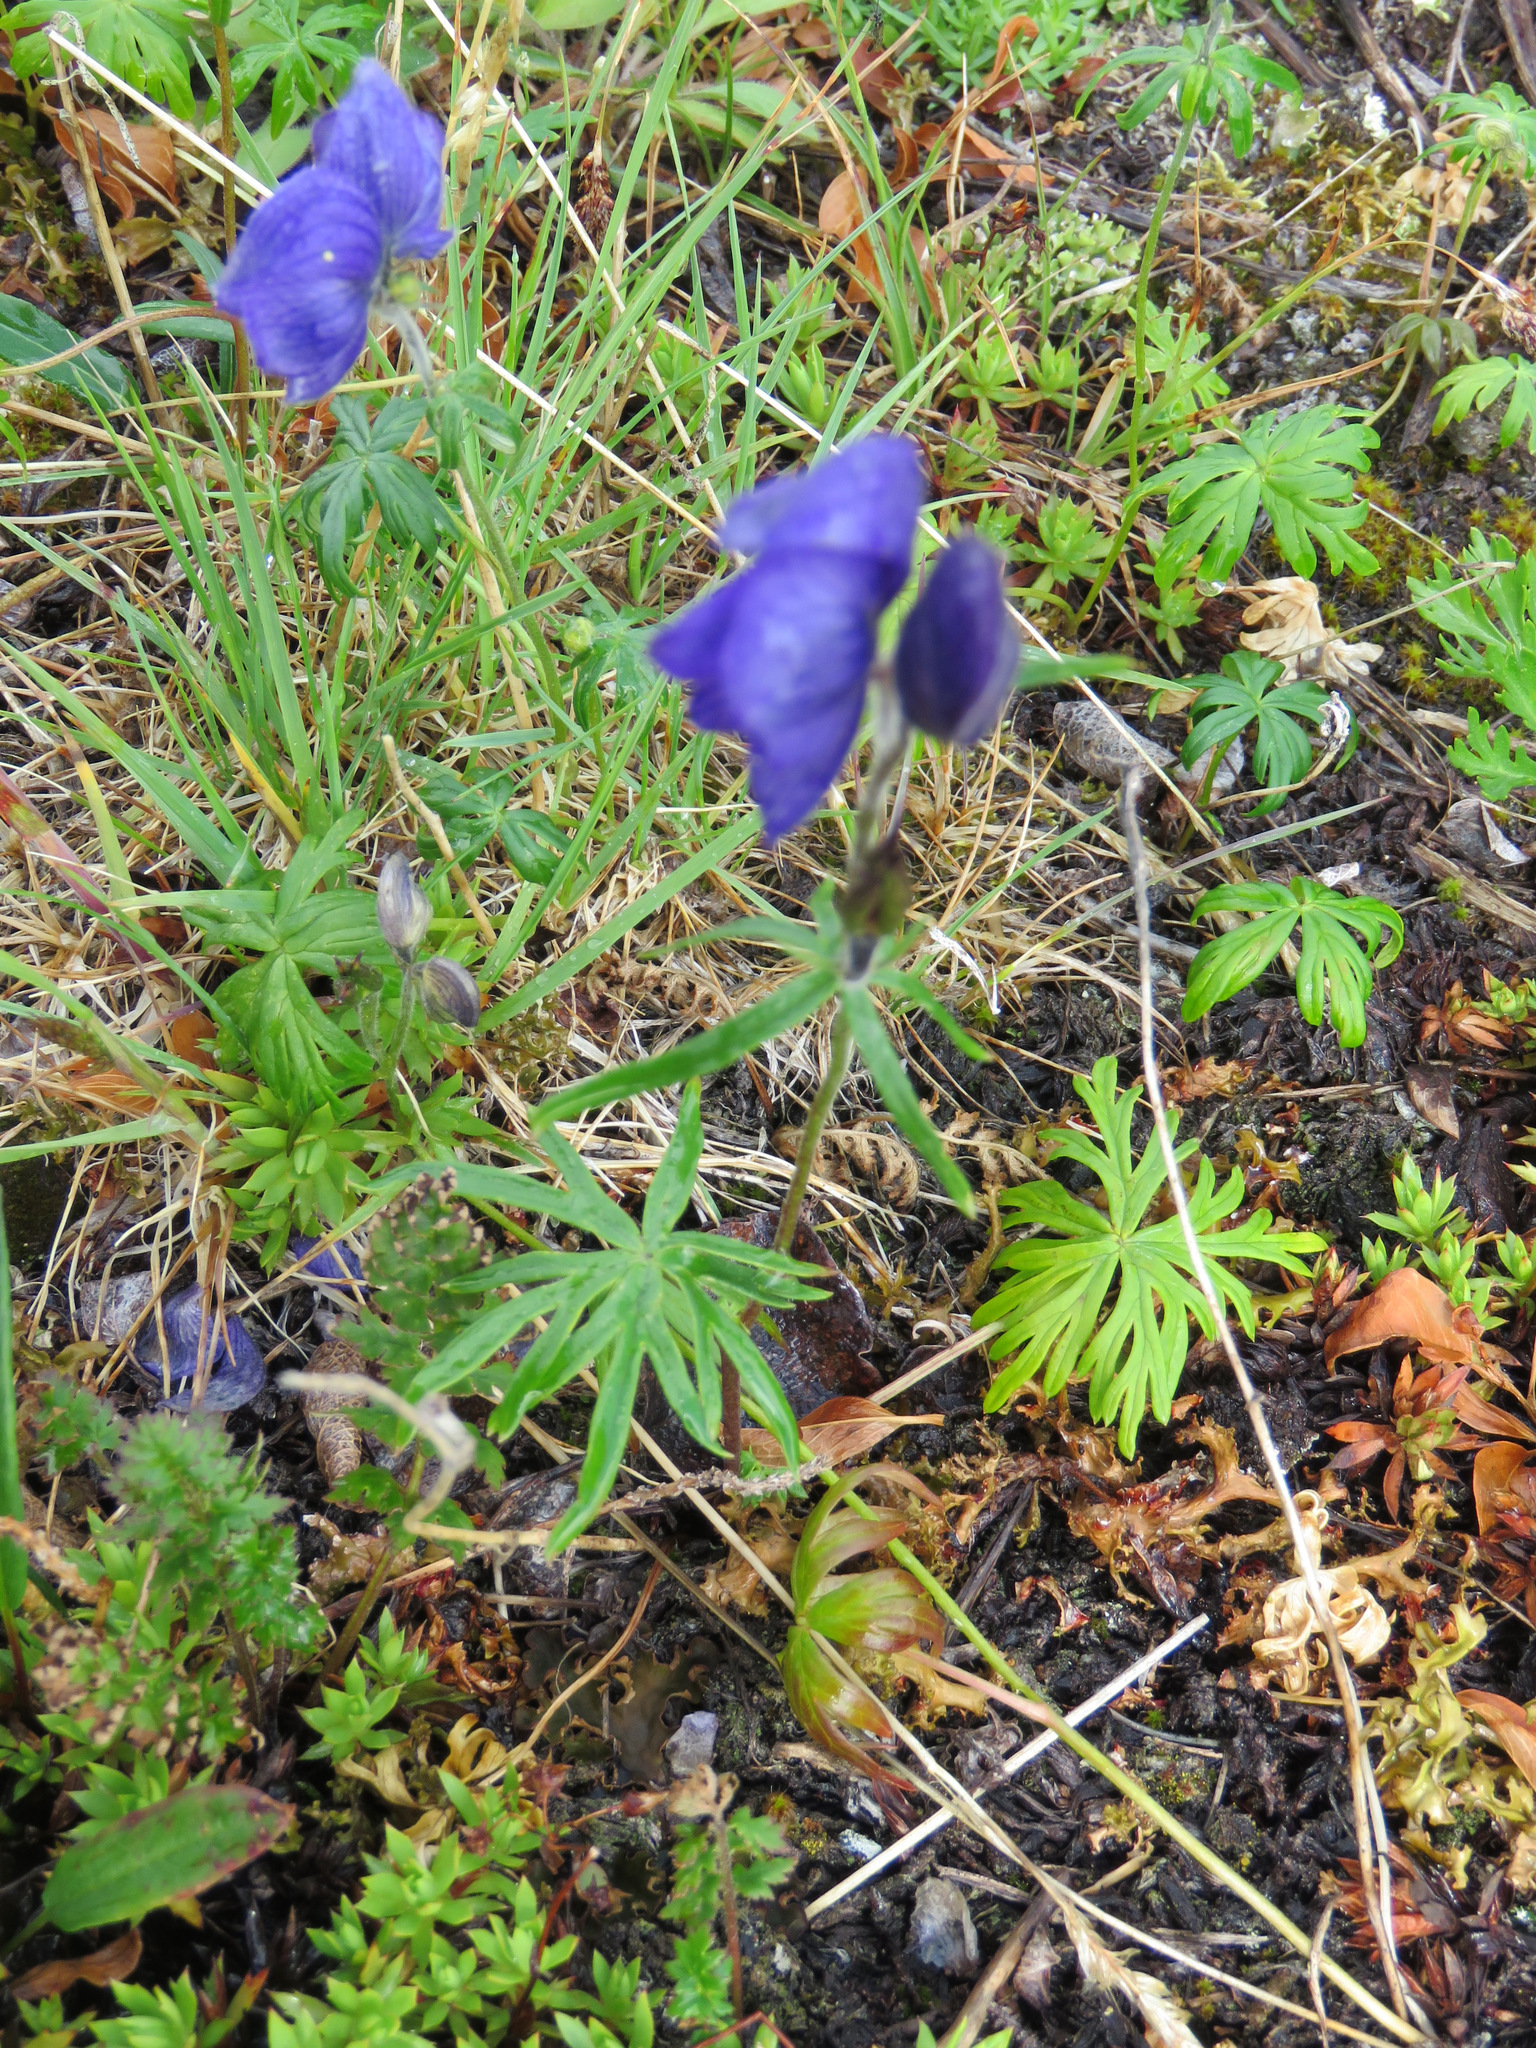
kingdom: Plantae
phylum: Tracheophyta
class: Magnoliopsida
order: Ranunculales
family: Ranunculaceae
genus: Aconitum
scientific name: Aconitum delphiniifolium
